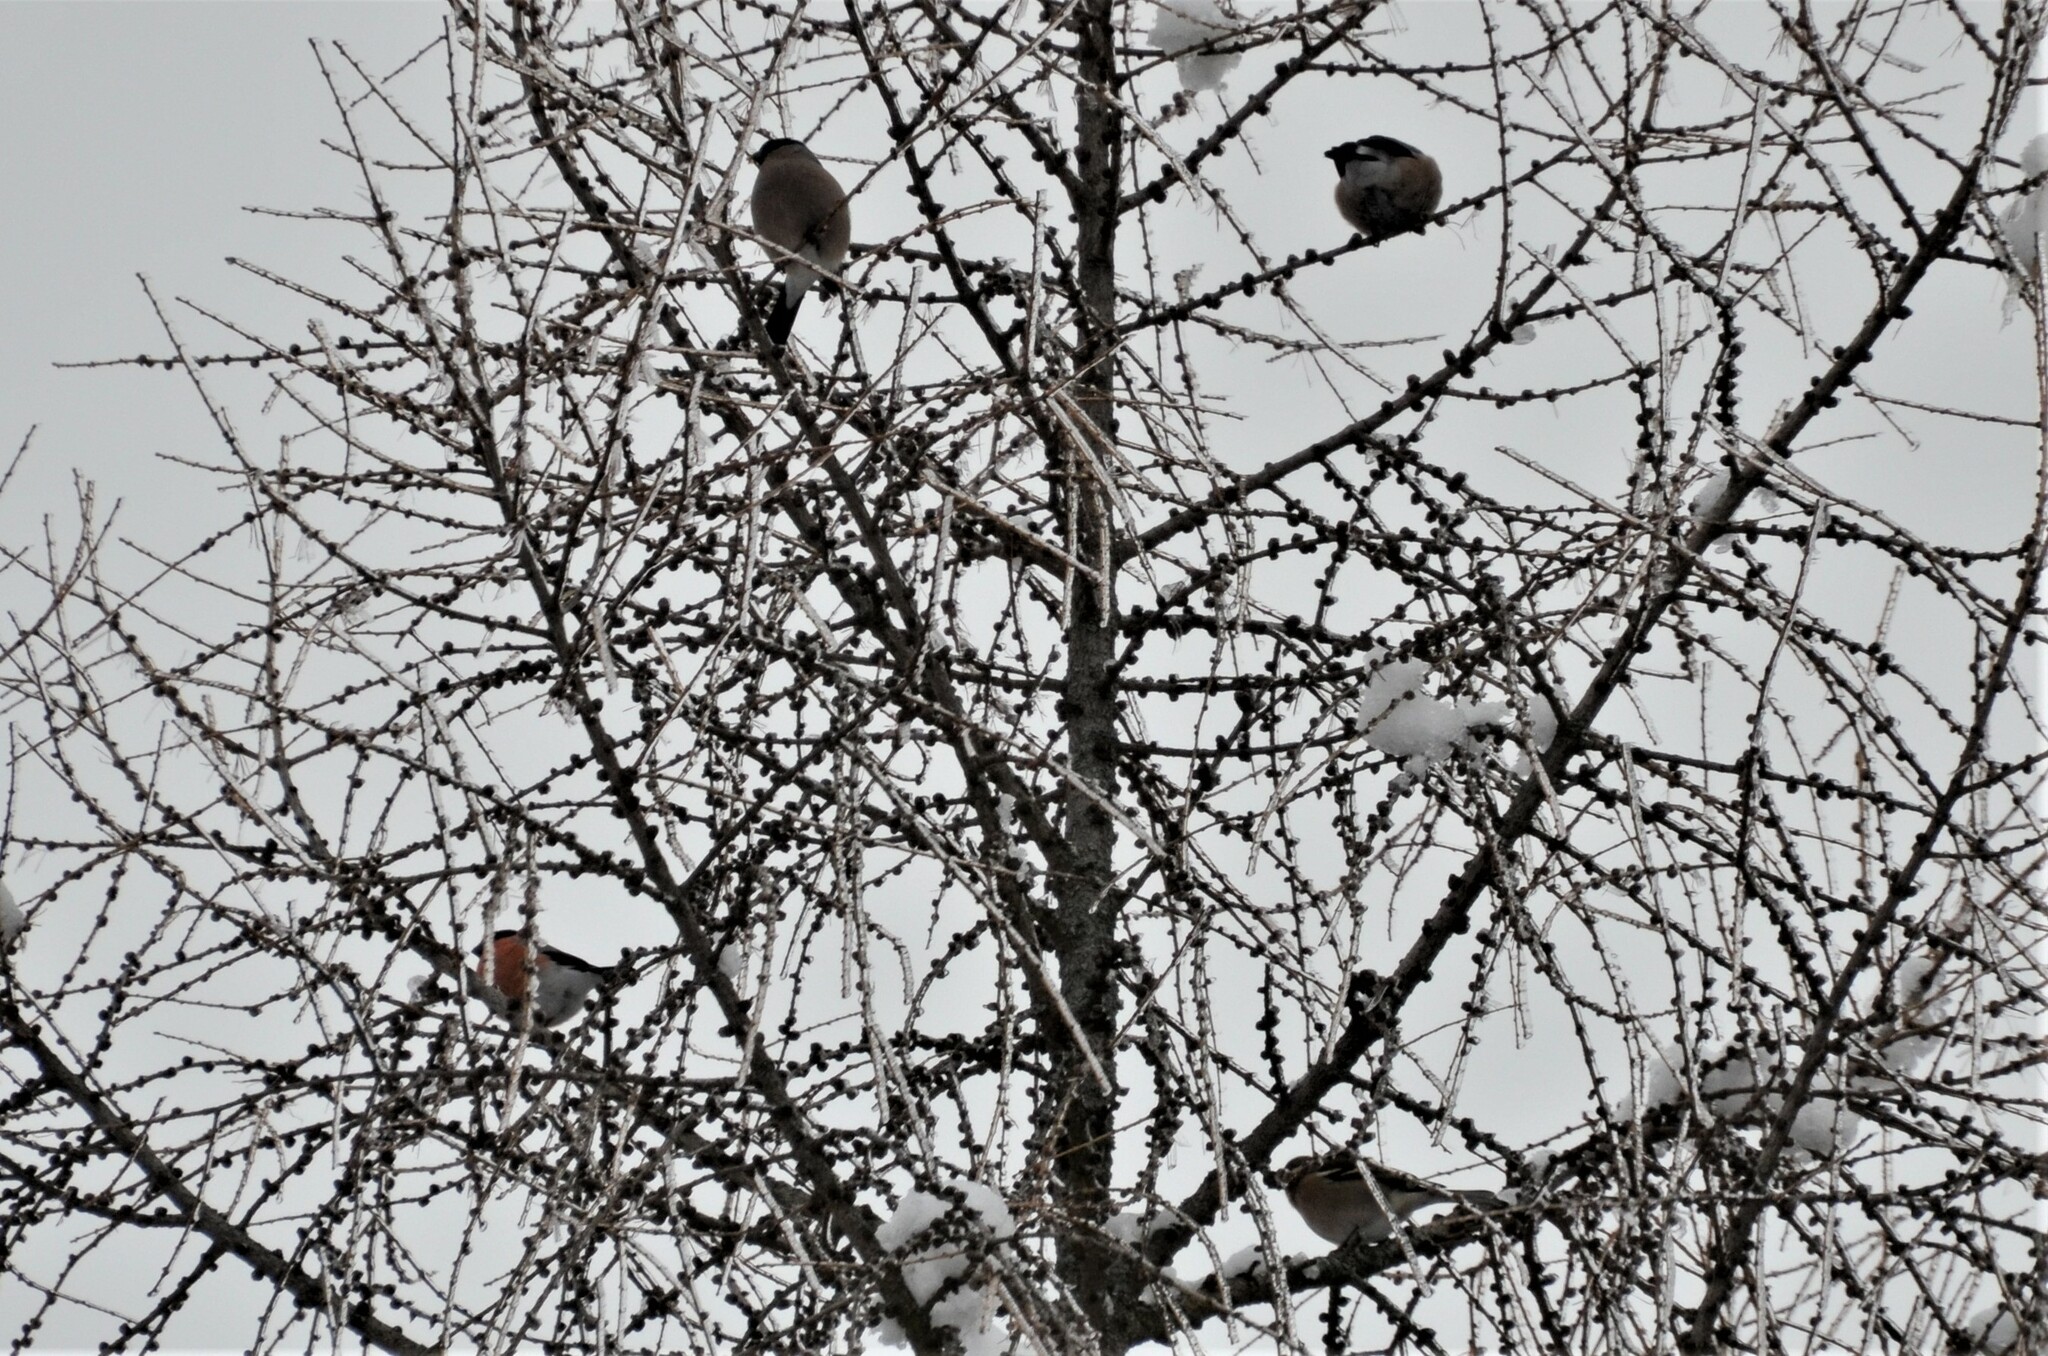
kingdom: Animalia
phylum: Chordata
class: Aves
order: Passeriformes
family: Fringillidae
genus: Pyrrhula
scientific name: Pyrrhula pyrrhula
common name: Eurasian bullfinch
